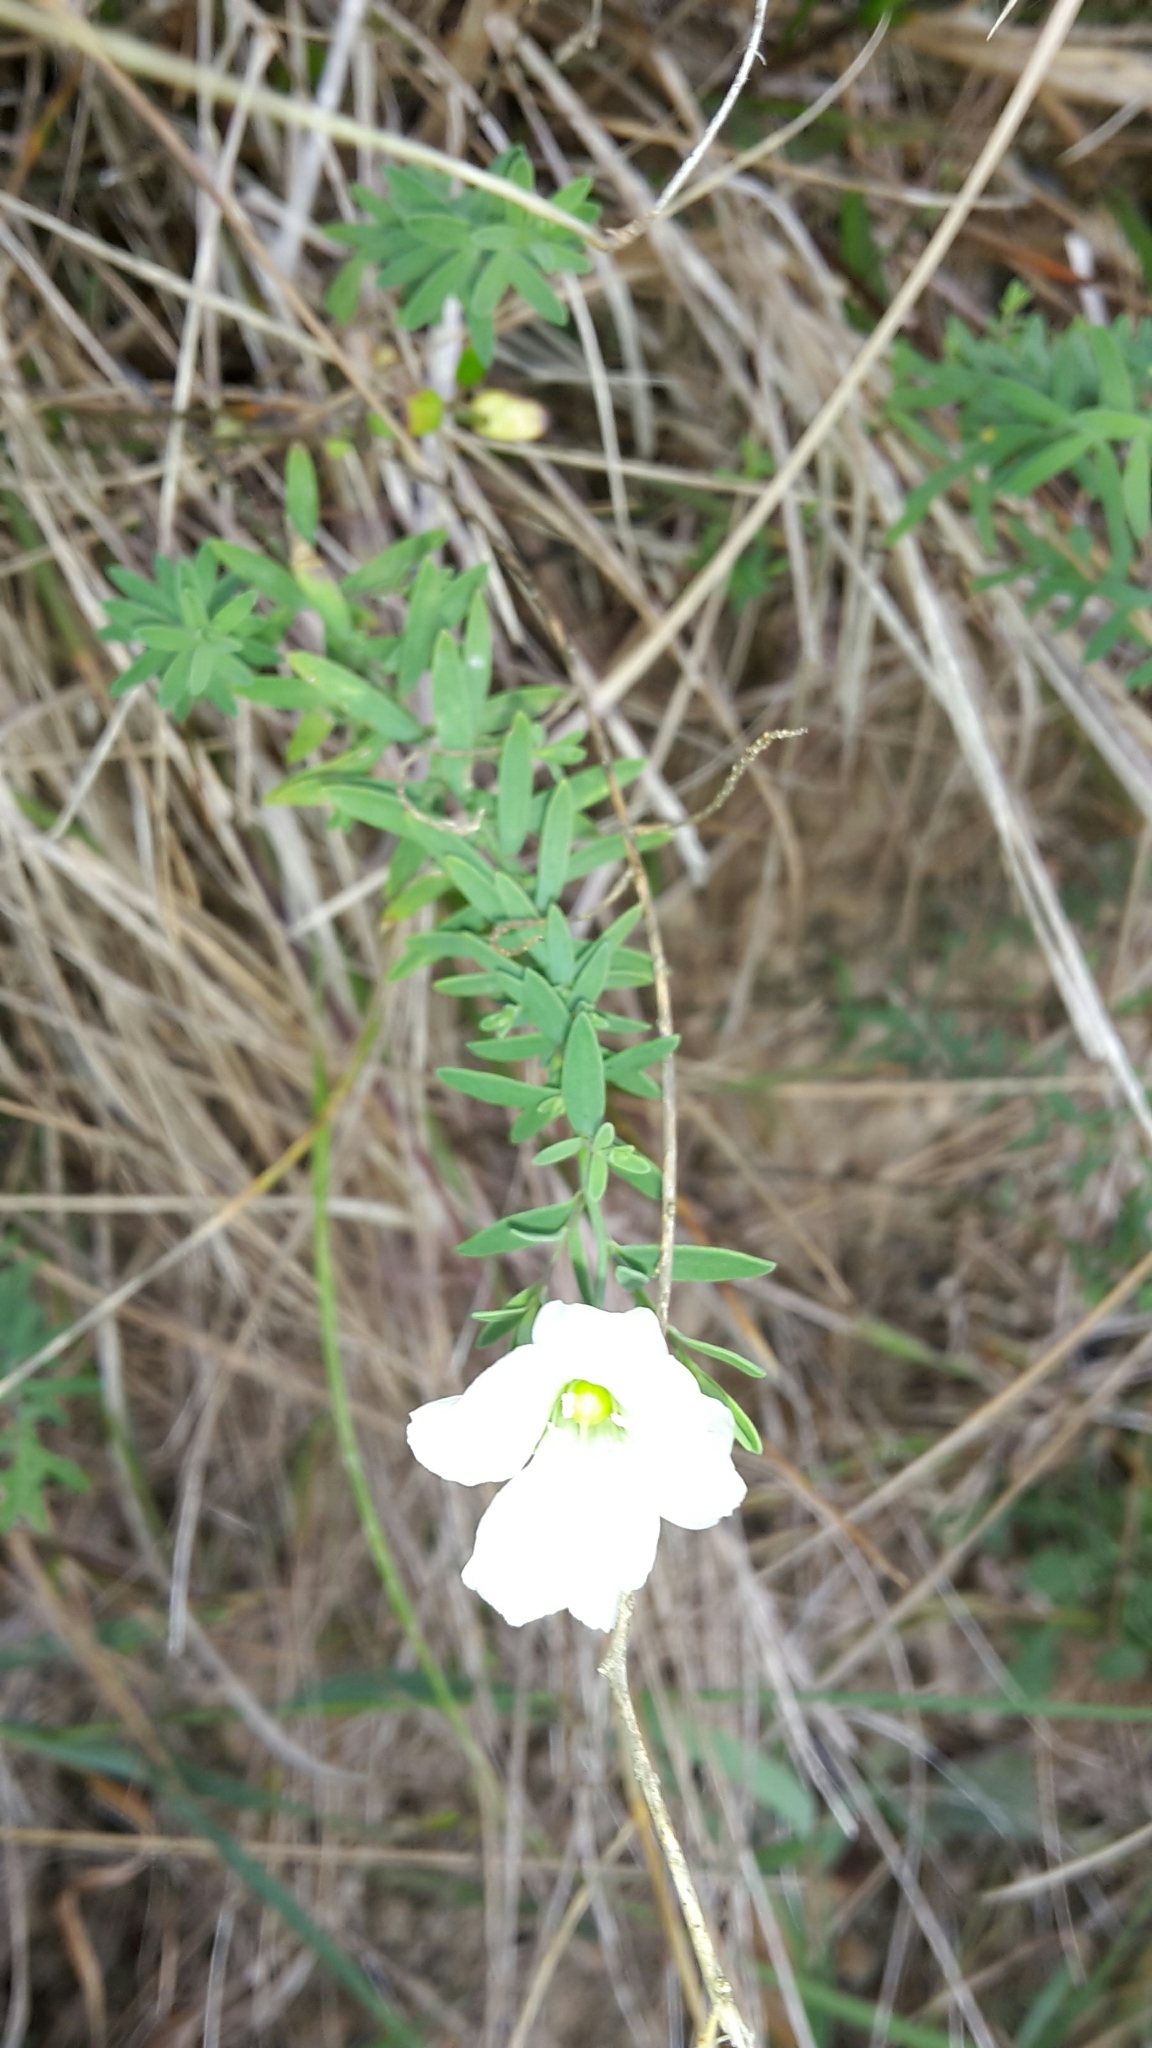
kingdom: Plantae
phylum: Tracheophyta
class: Magnoliopsida
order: Malpighiales
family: Linaceae
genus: Linum
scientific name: Linum monogynum
